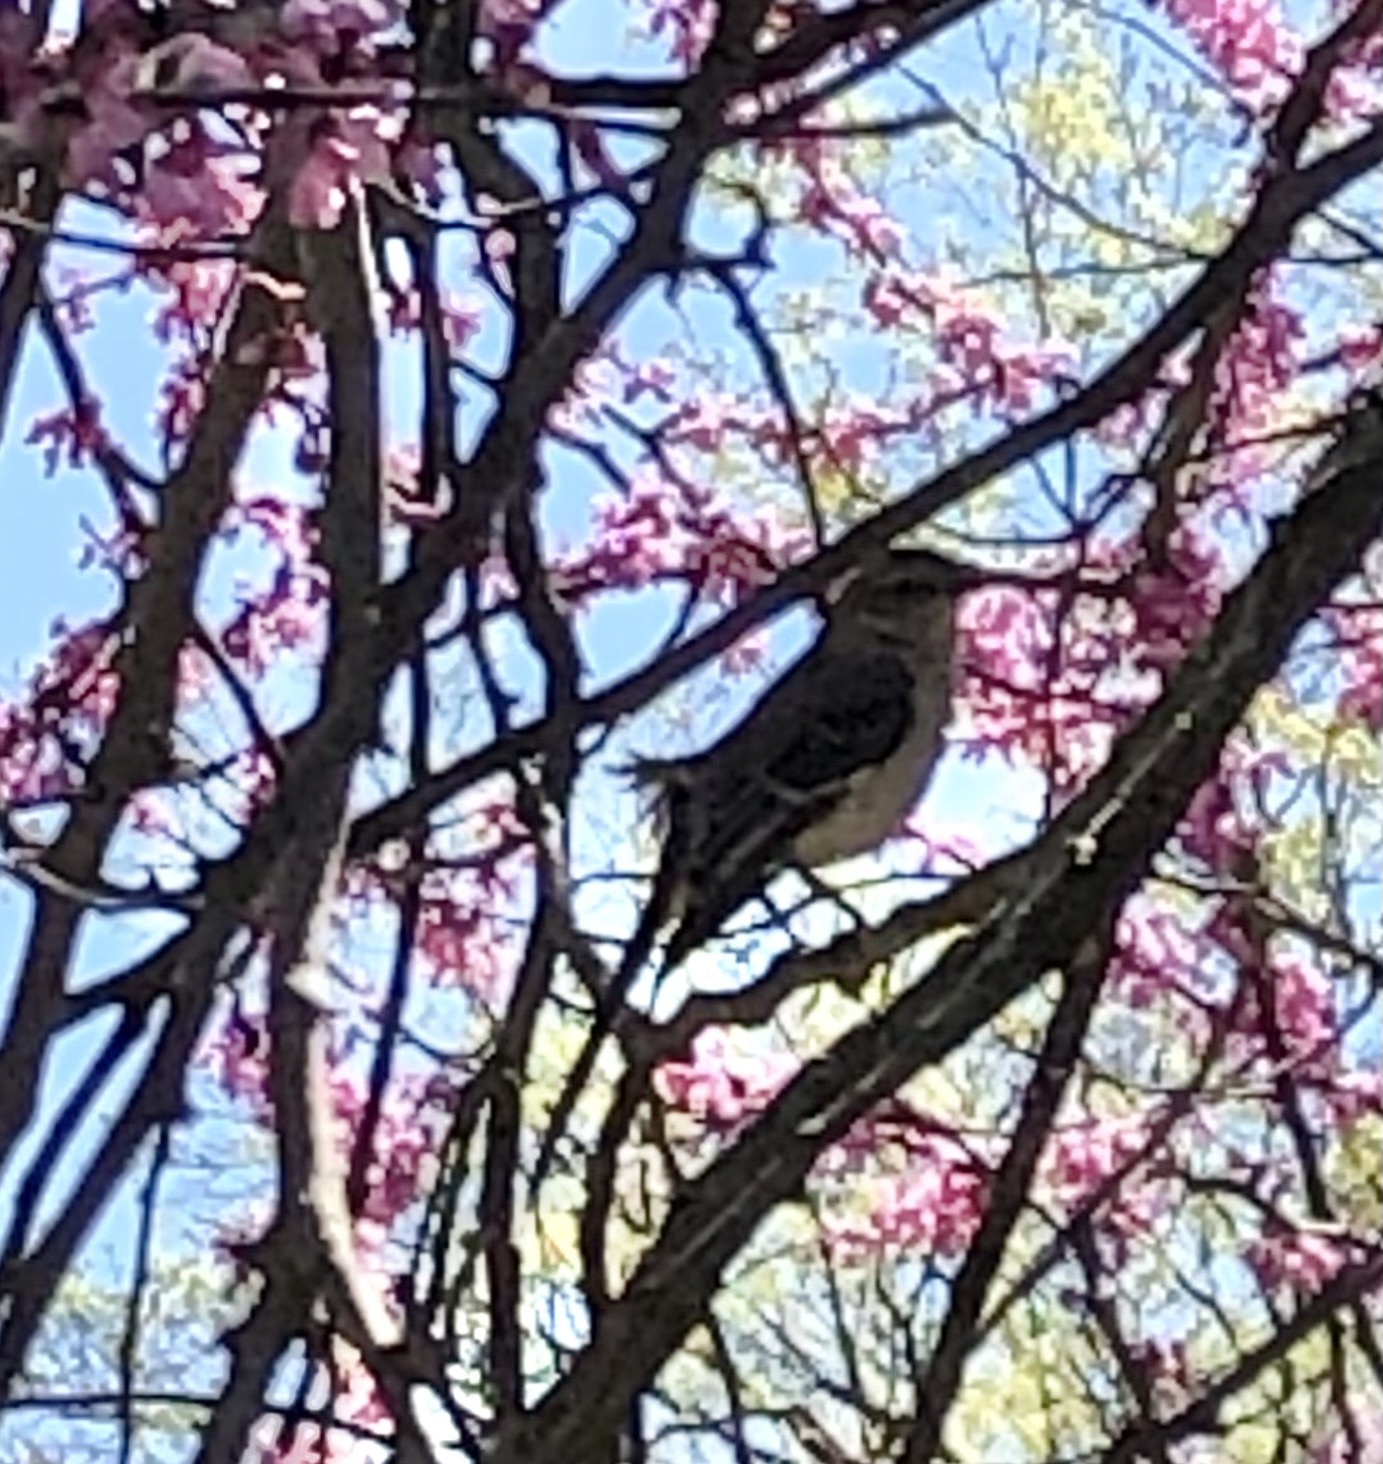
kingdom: Animalia
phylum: Chordata
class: Aves
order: Passeriformes
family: Mimidae
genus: Mimus
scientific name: Mimus polyglottos
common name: Northern mockingbird
